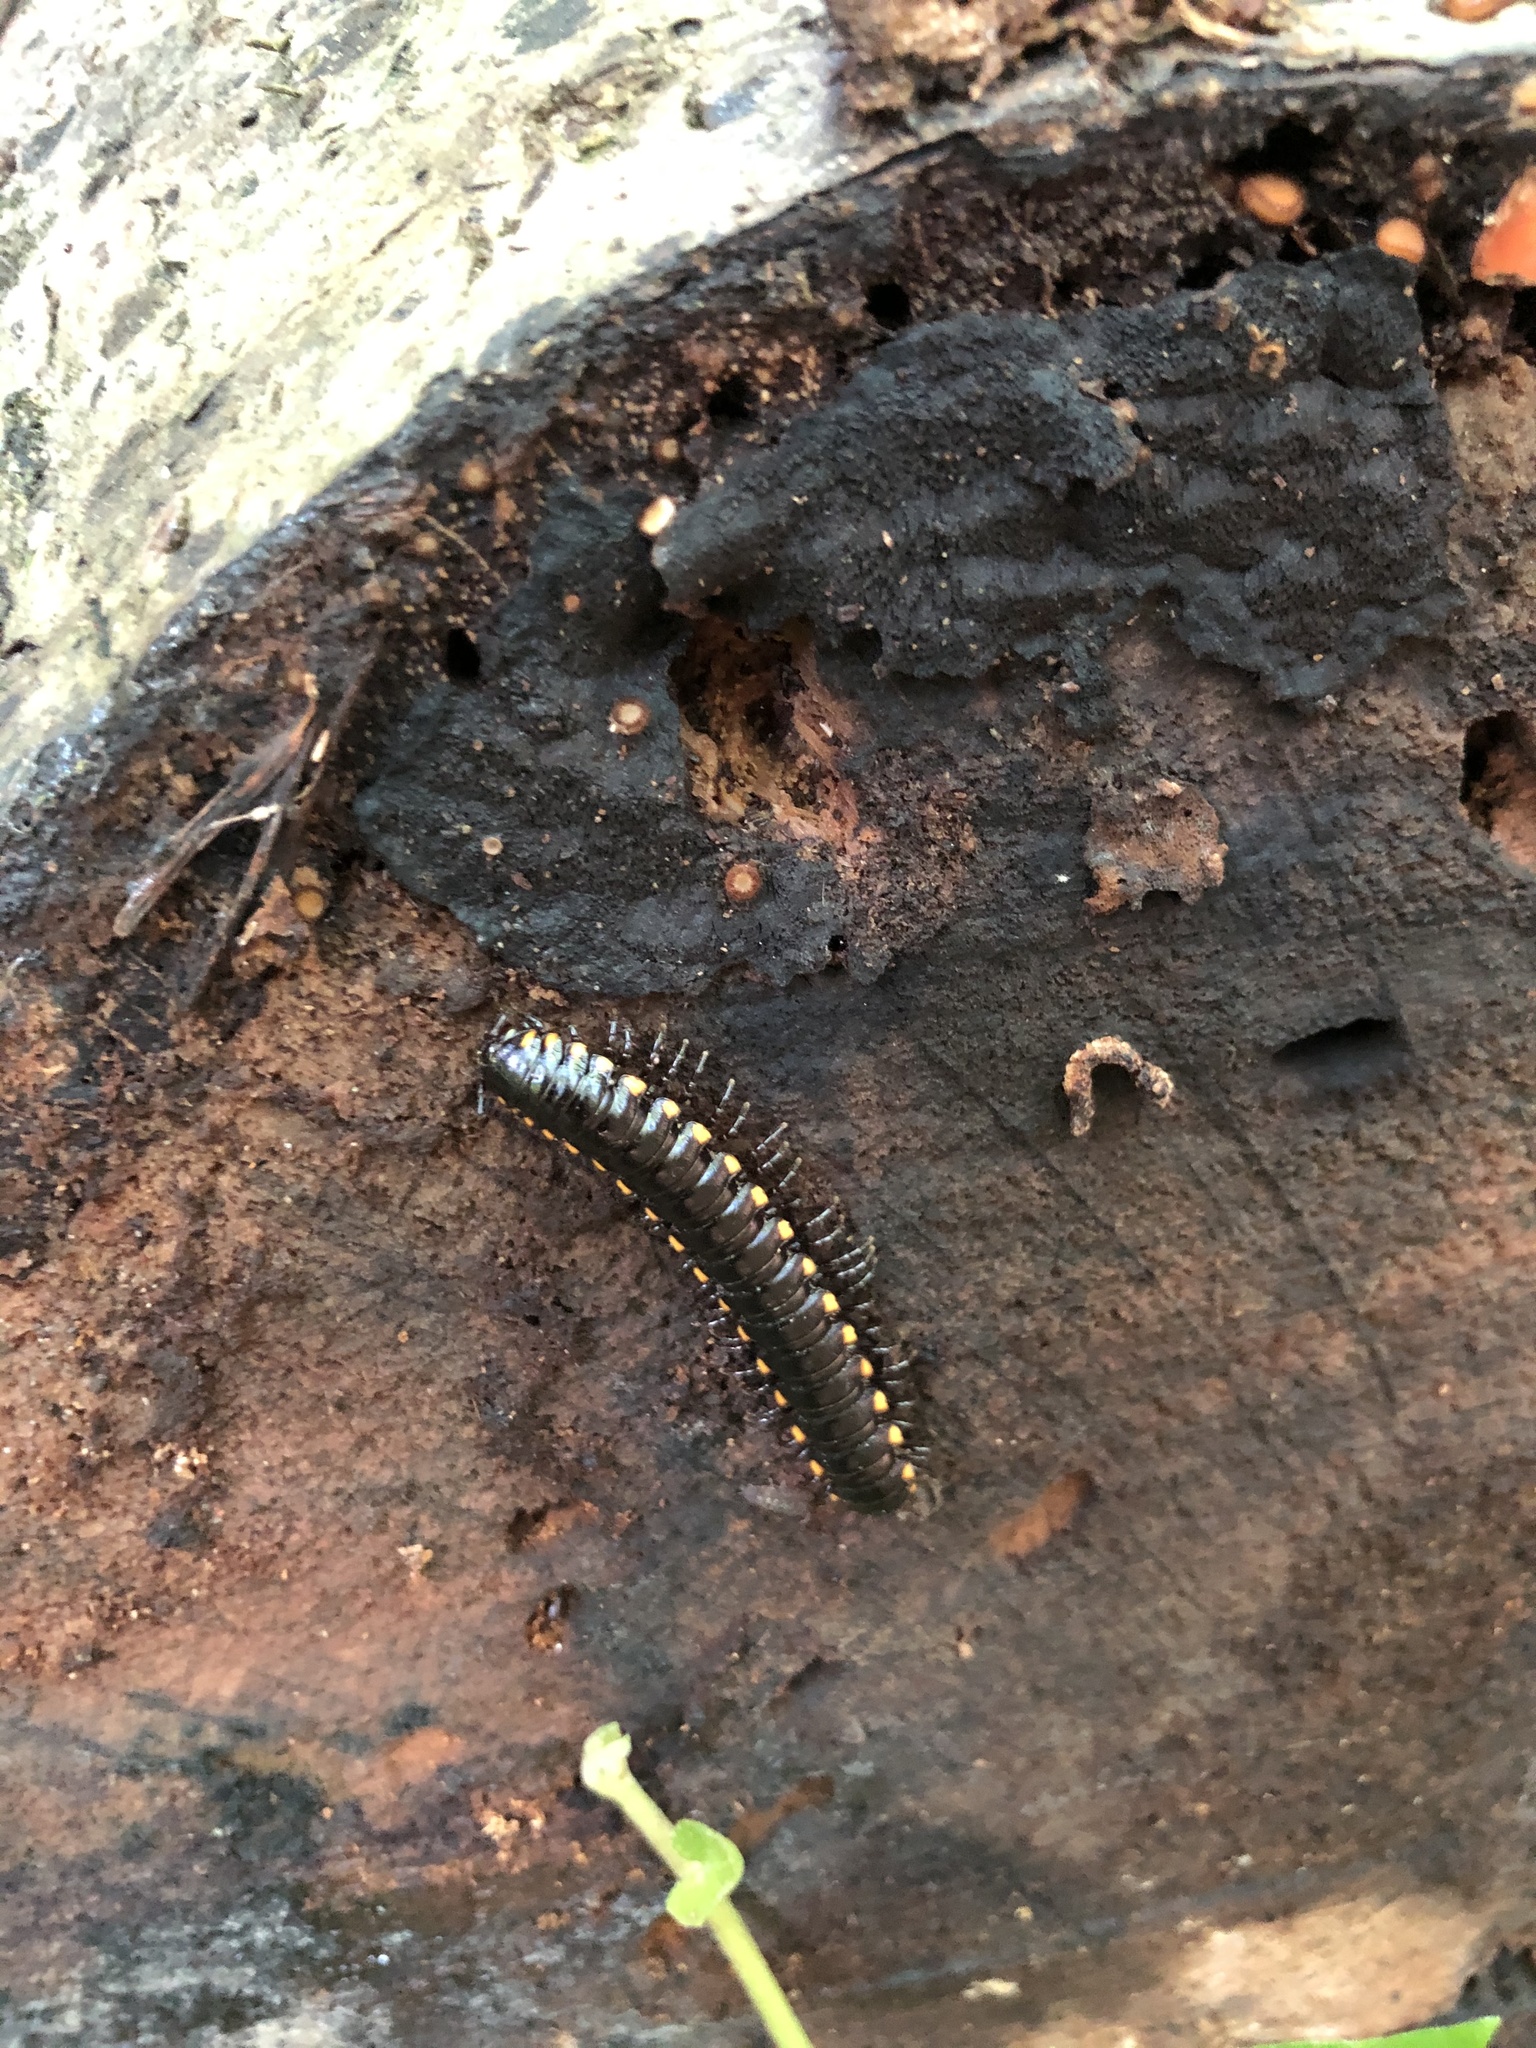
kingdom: Animalia
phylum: Arthropoda
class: Diplopoda
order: Polydesmida
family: Xystodesmidae
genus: Harpaphe
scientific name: Harpaphe haydeniana
